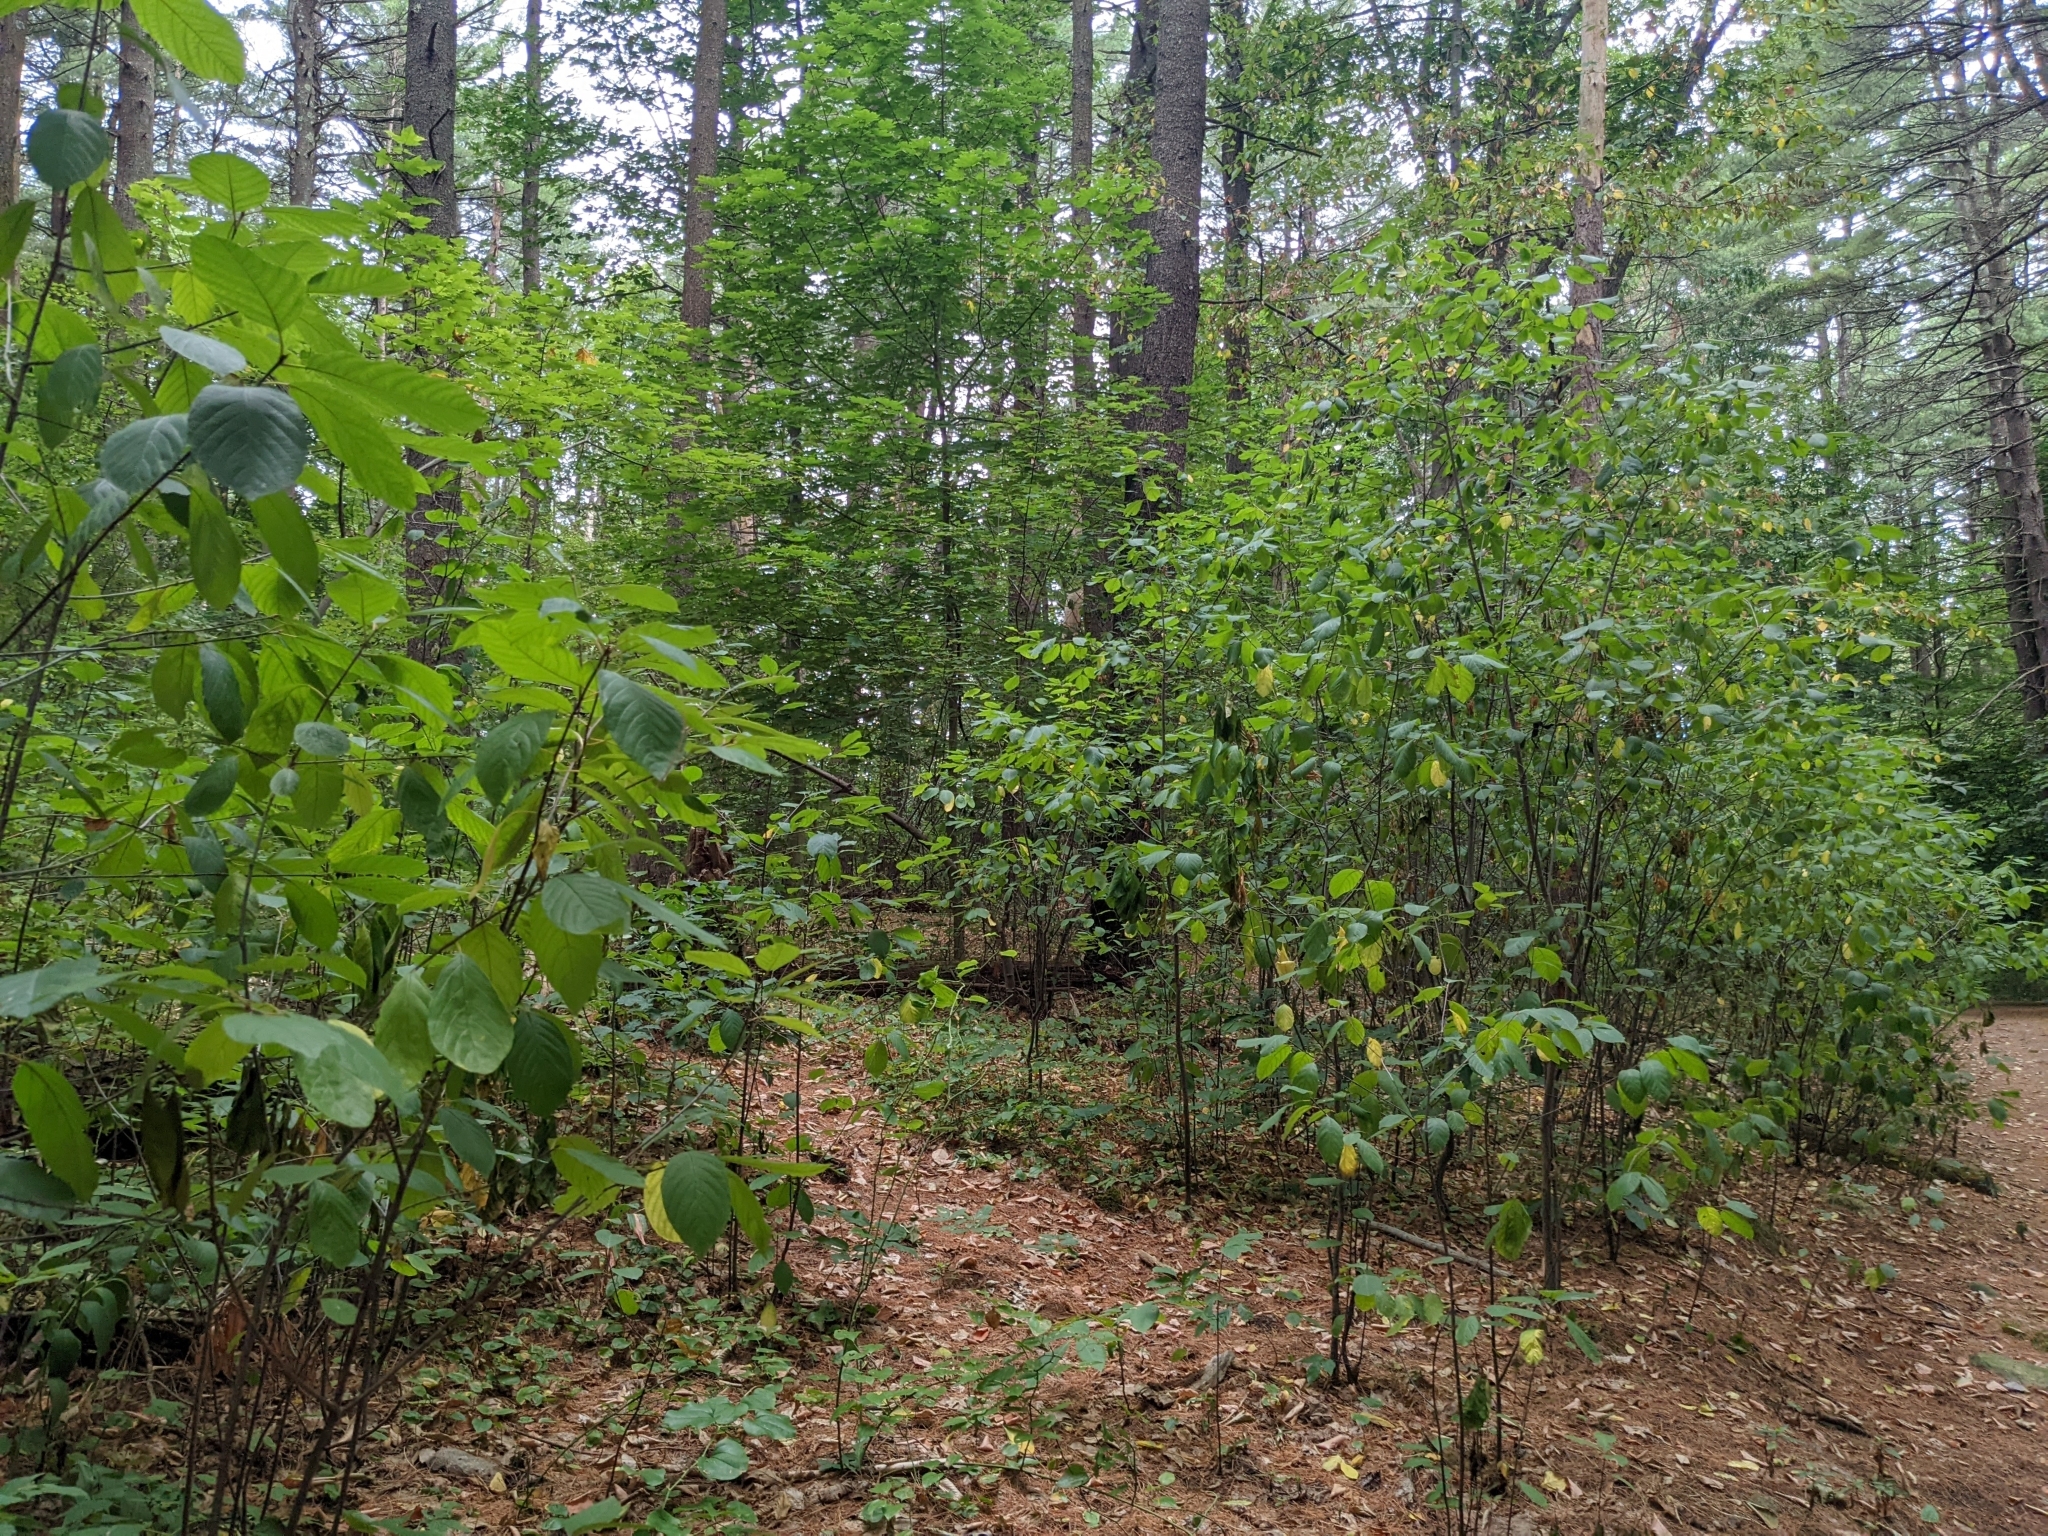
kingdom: Plantae
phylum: Tracheophyta
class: Magnoliopsida
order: Rosales
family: Rhamnaceae
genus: Frangula
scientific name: Frangula alnus
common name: Alder buckthorn
